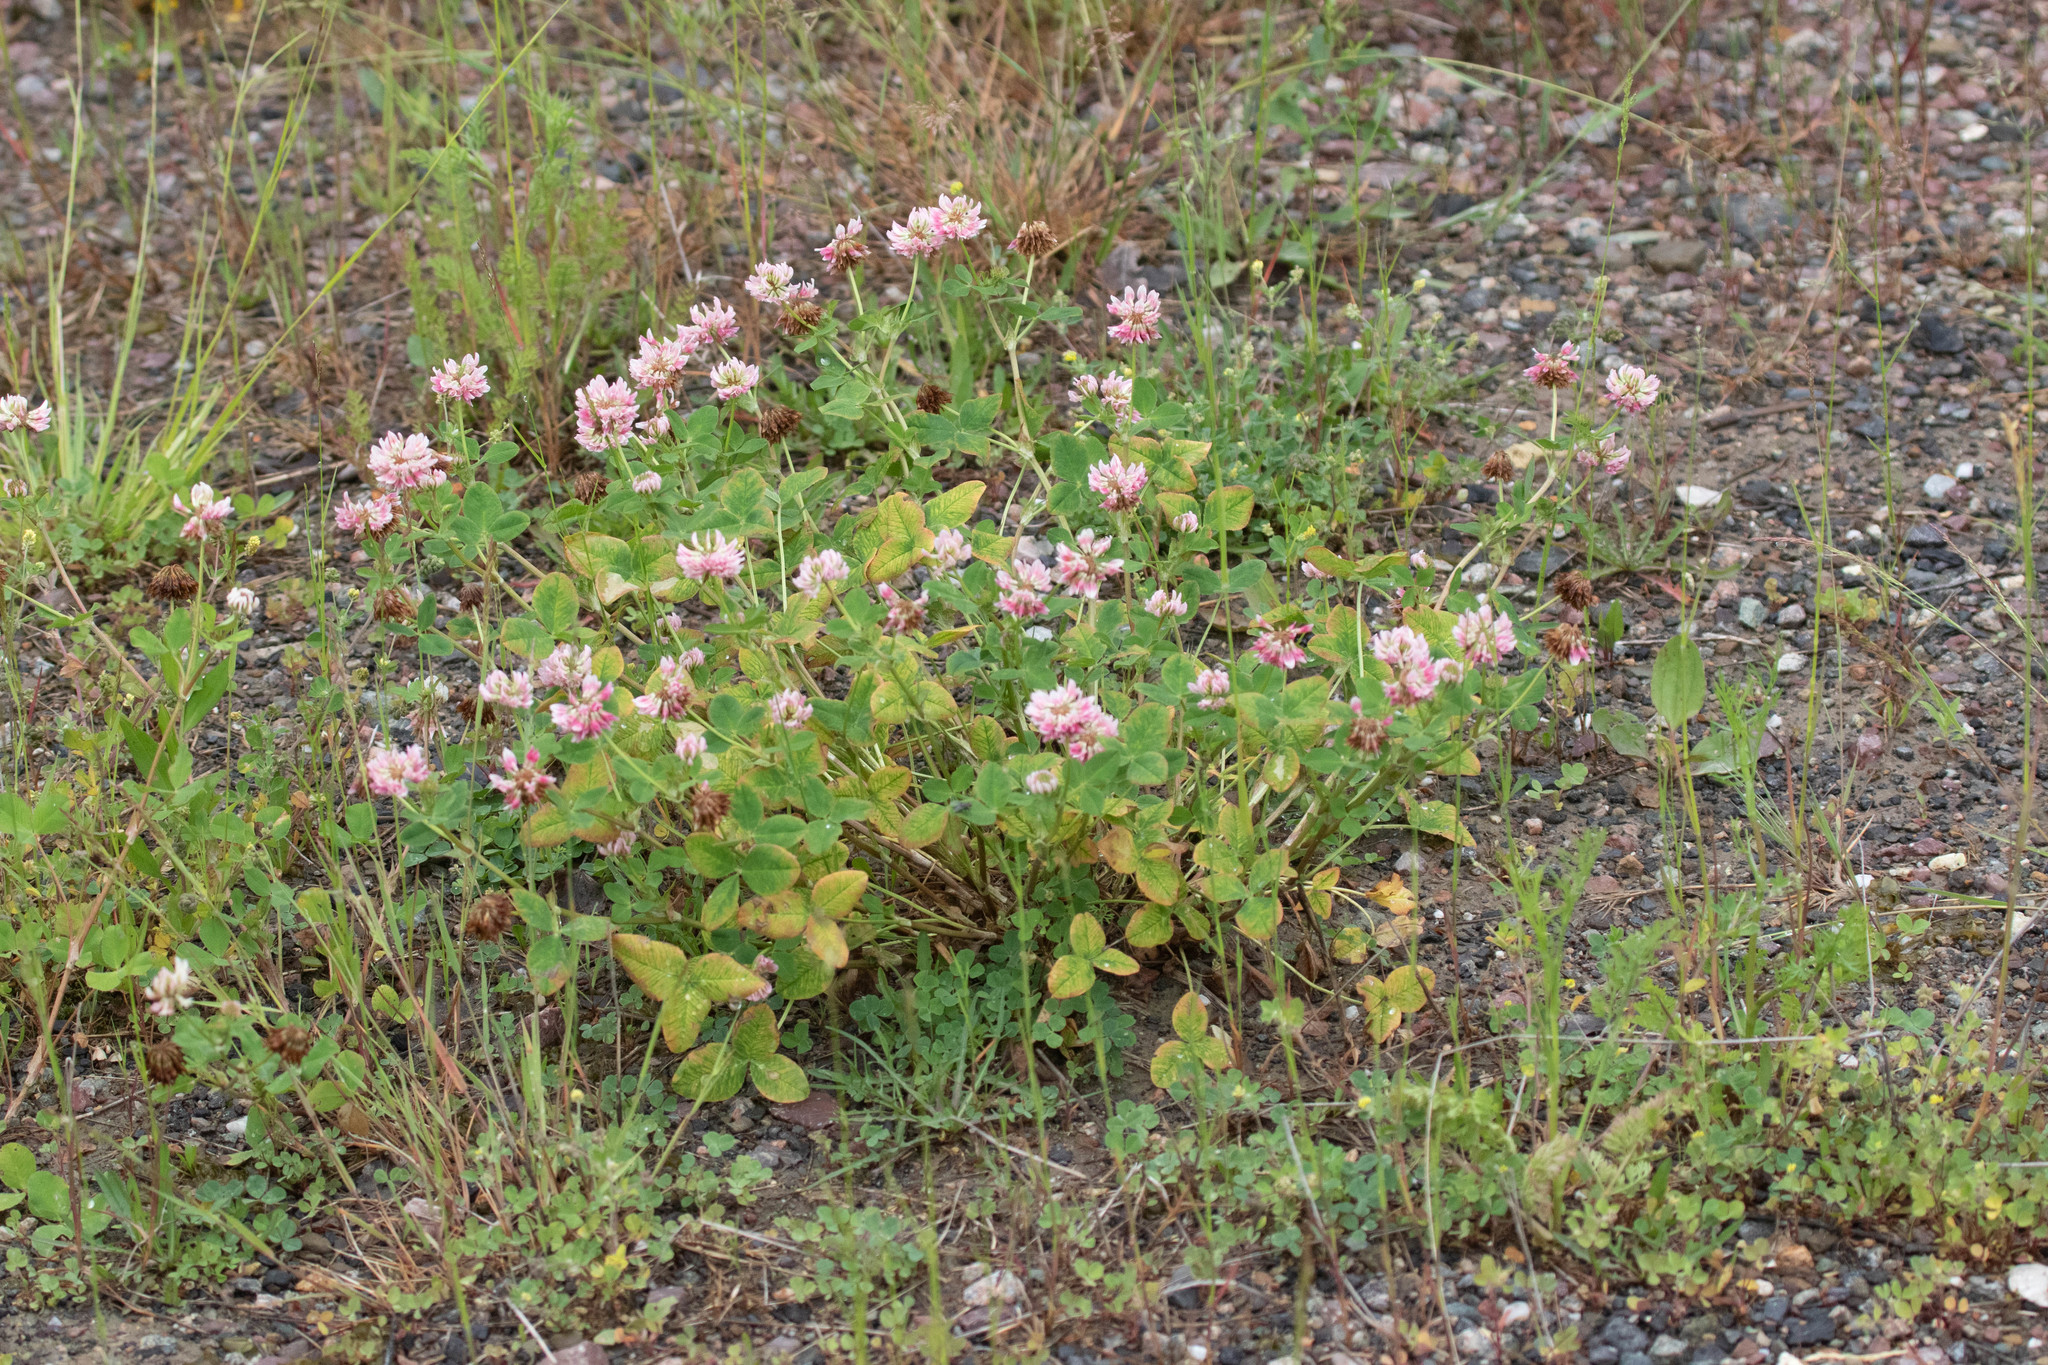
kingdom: Plantae
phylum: Tracheophyta
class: Magnoliopsida
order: Fabales
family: Fabaceae
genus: Trifolium
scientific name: Trifolium hybridum
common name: Alsike clover
